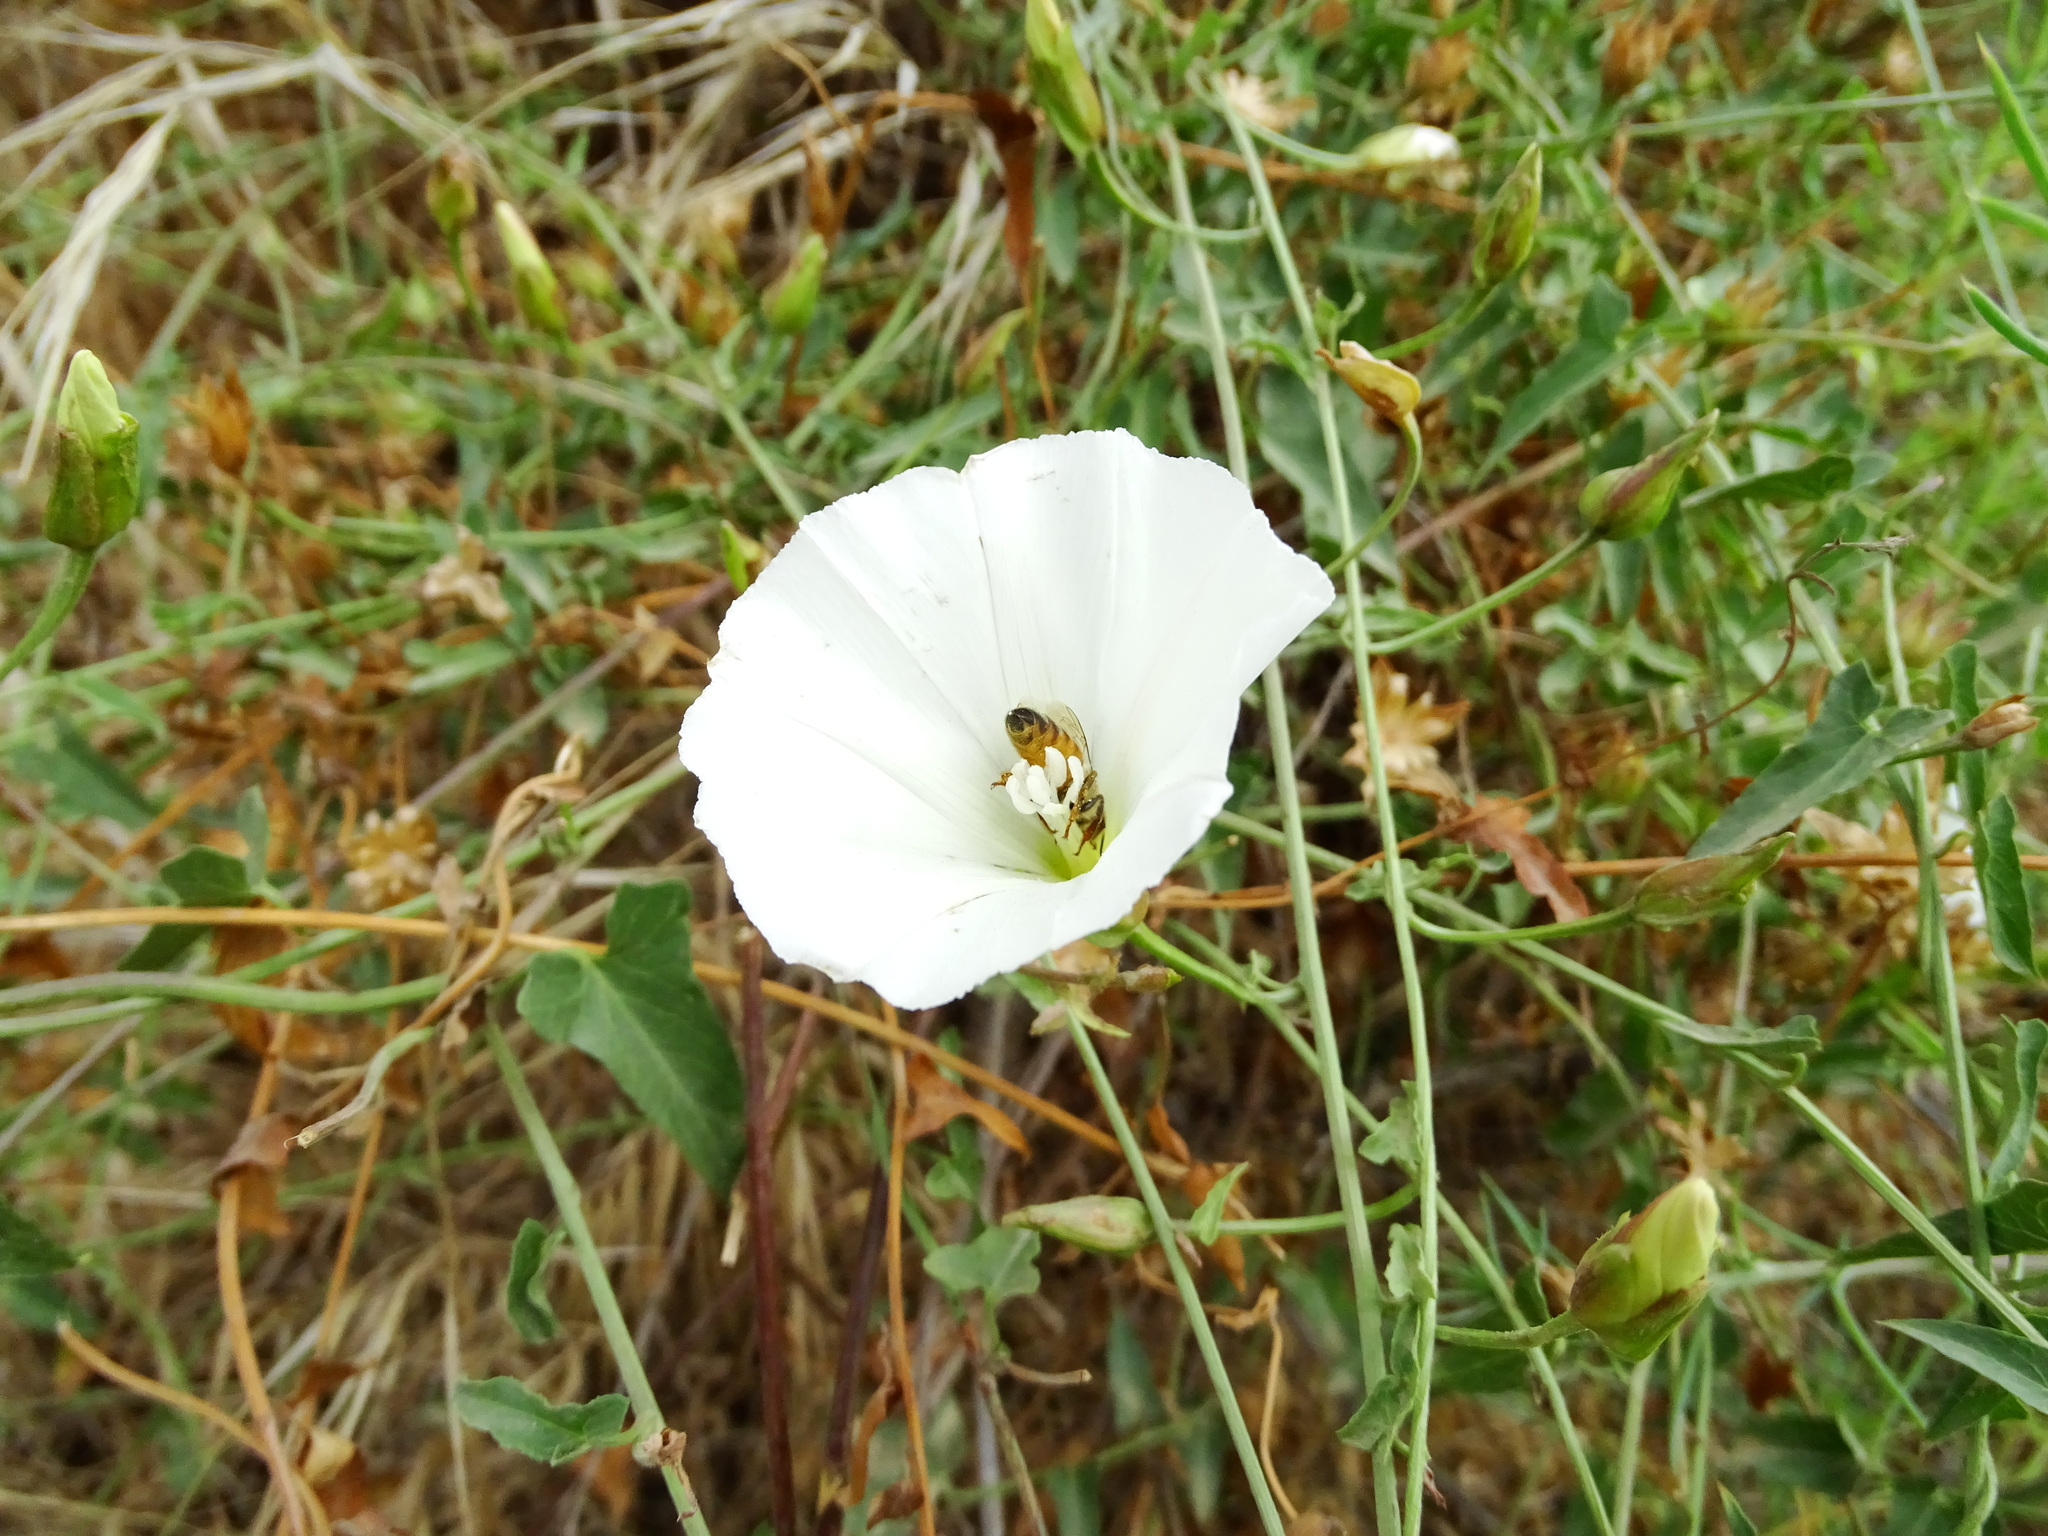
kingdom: Animalia
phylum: Arthropoda
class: Insecta
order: Hymenoptera
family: Apidae
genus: Apis
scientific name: Apis mellifera
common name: Honey bee
